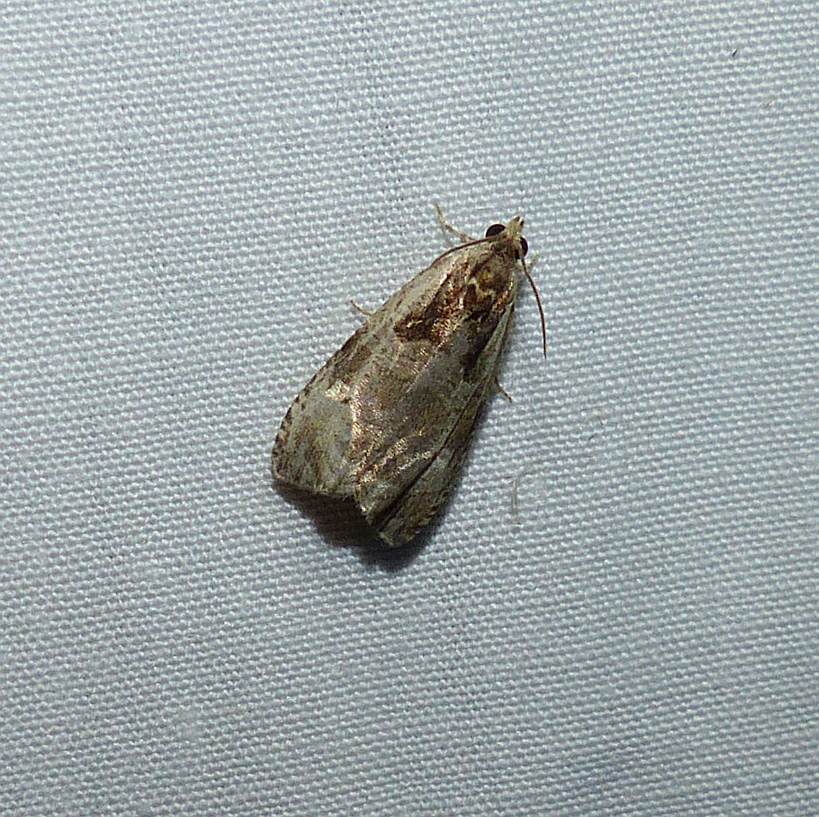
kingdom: Animalia
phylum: Arthropoda
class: Insecta
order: Lepidoptera
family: Tortricidae
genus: Olethreutes
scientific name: Olethreutes punctanum
